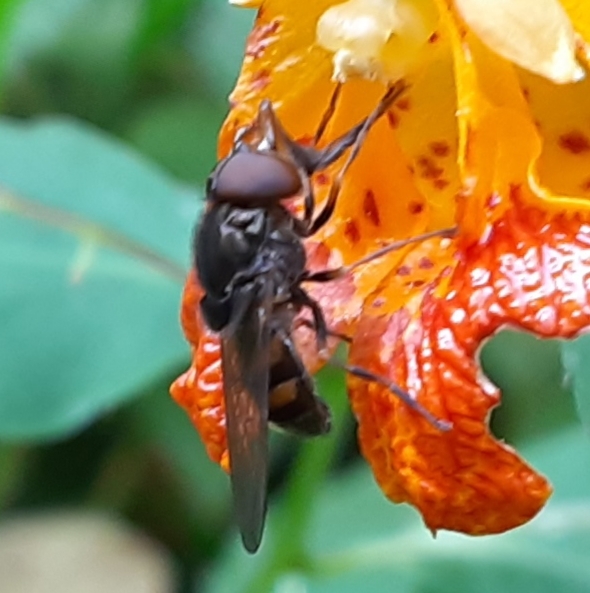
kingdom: Animalia
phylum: Arthropoda
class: Insecta
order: Diptera
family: Syrphidae
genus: Rhingia
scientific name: Rhingia nasica
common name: American snout fly
